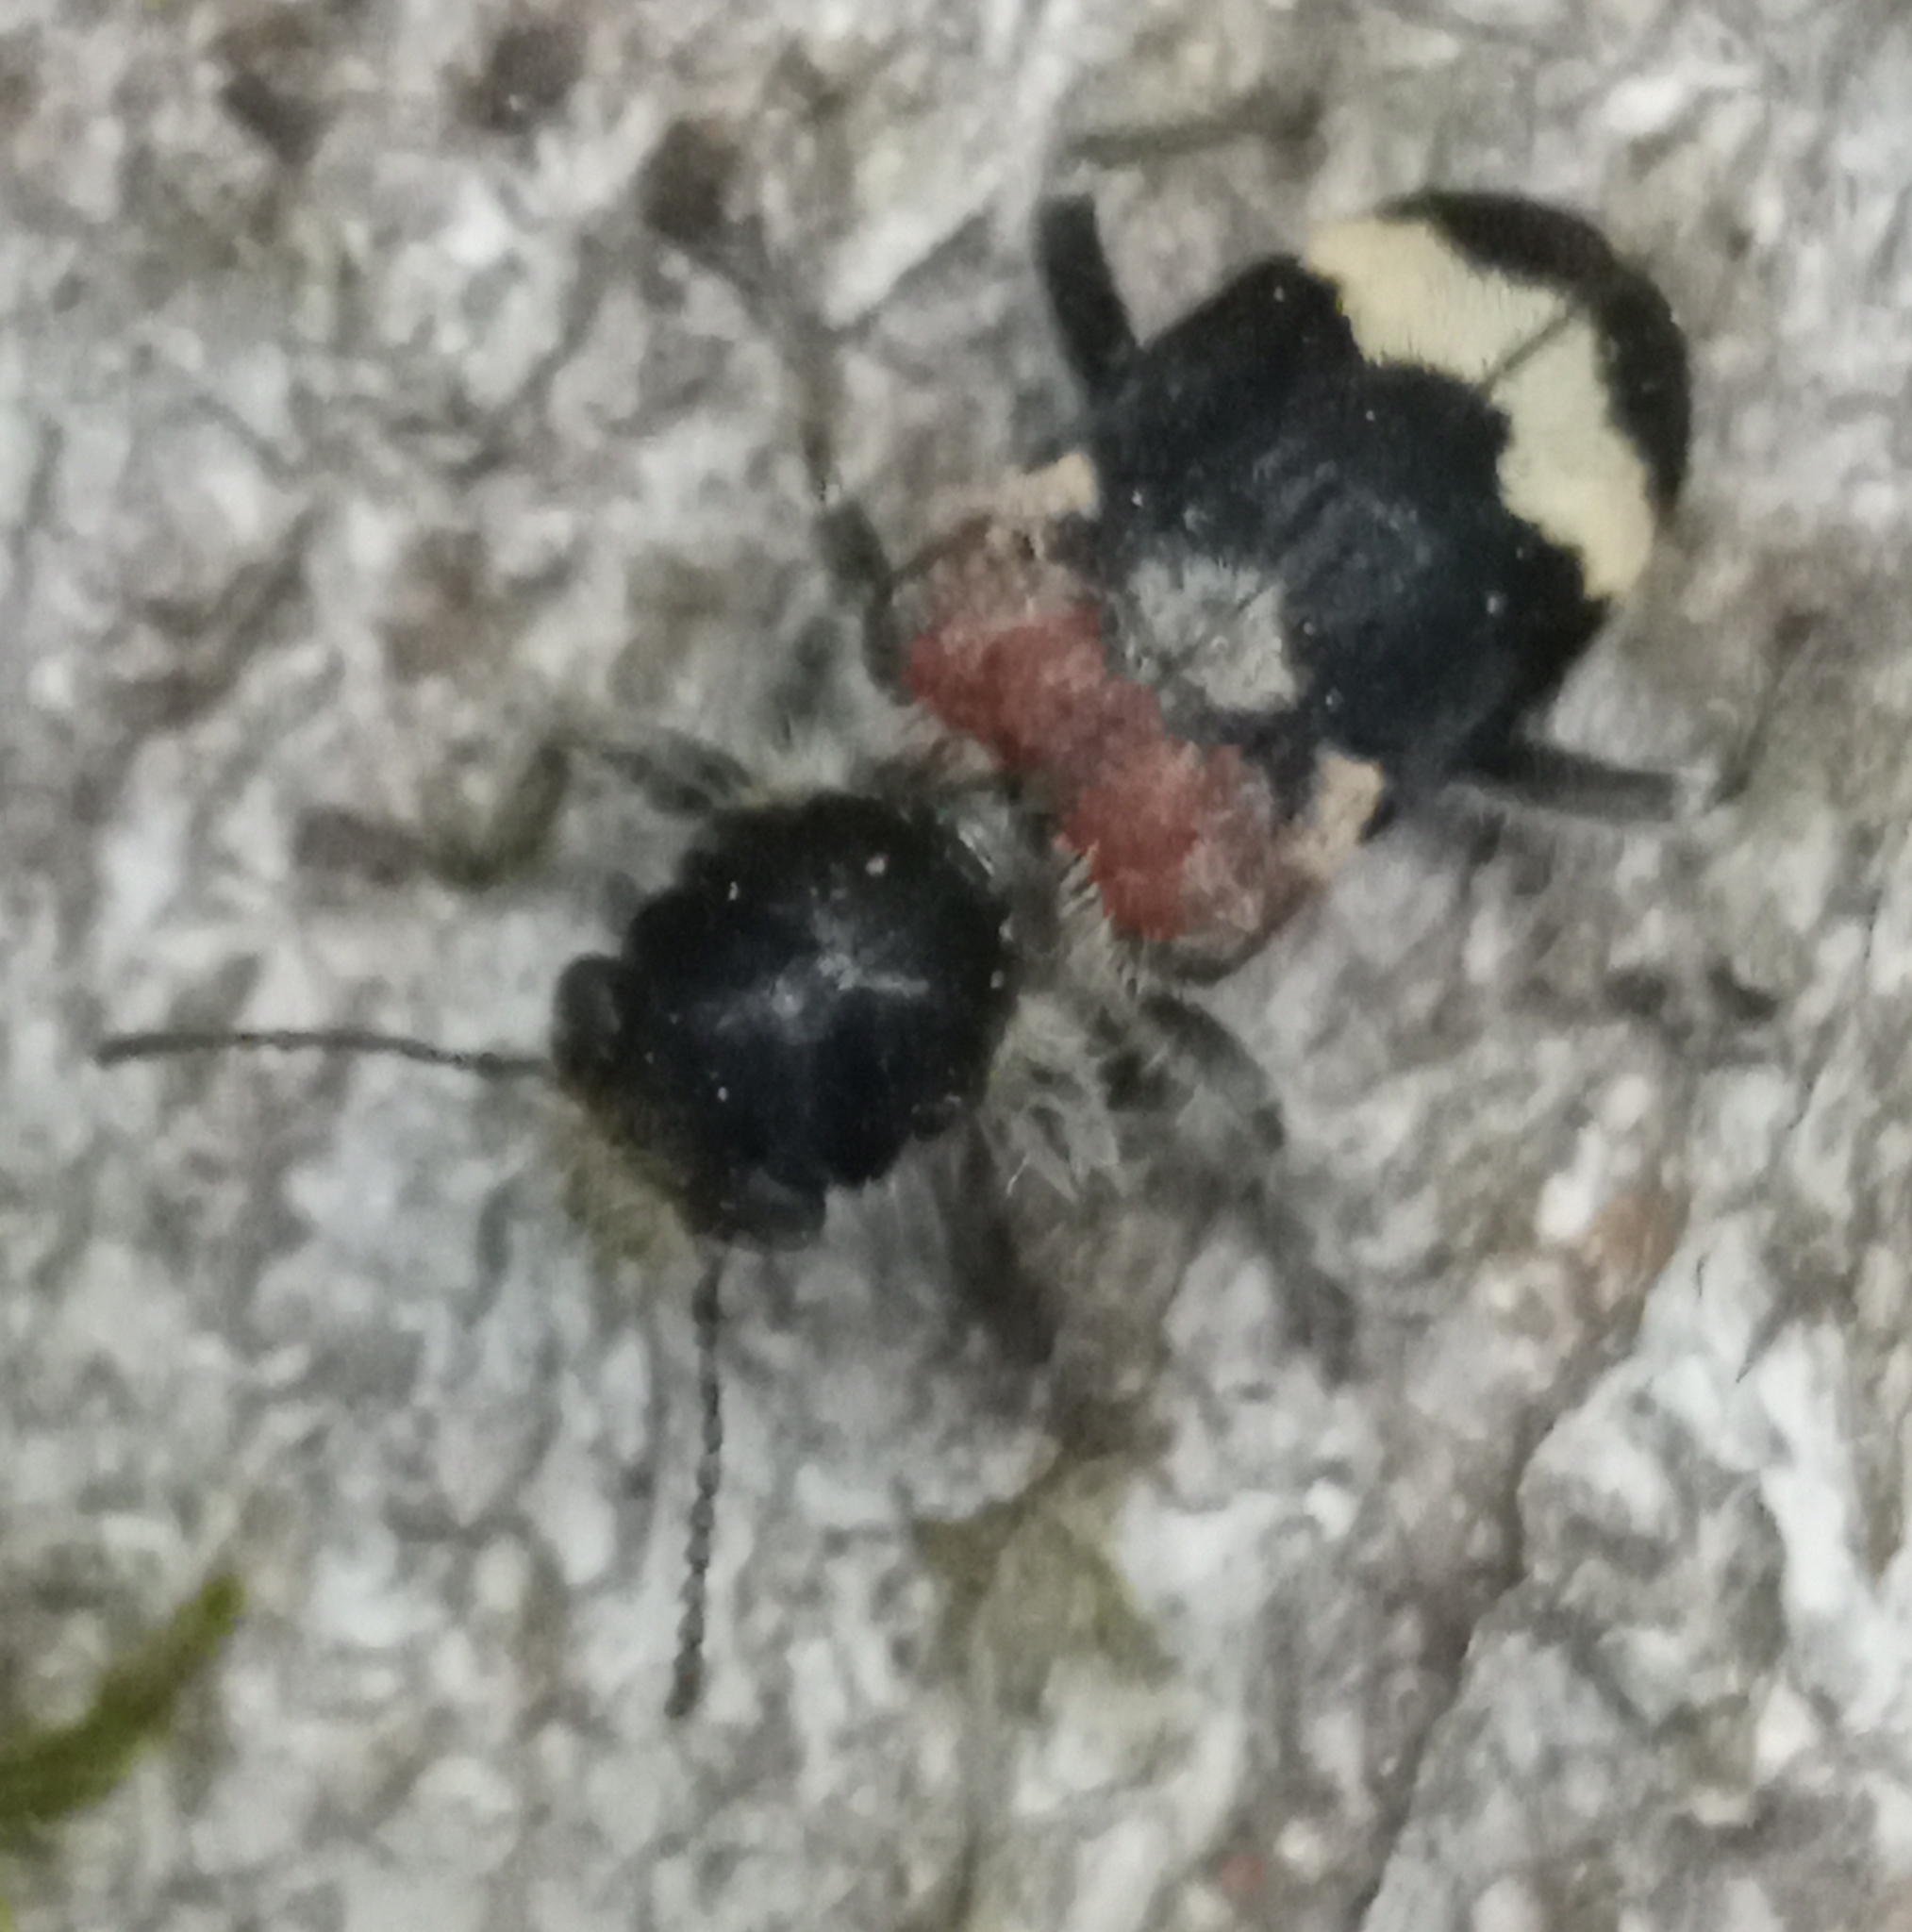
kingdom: Animalia
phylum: Arthropoda
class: Insecta
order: Coleoptera
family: Cleridae
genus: Clerus
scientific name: Clerus mutillarius
